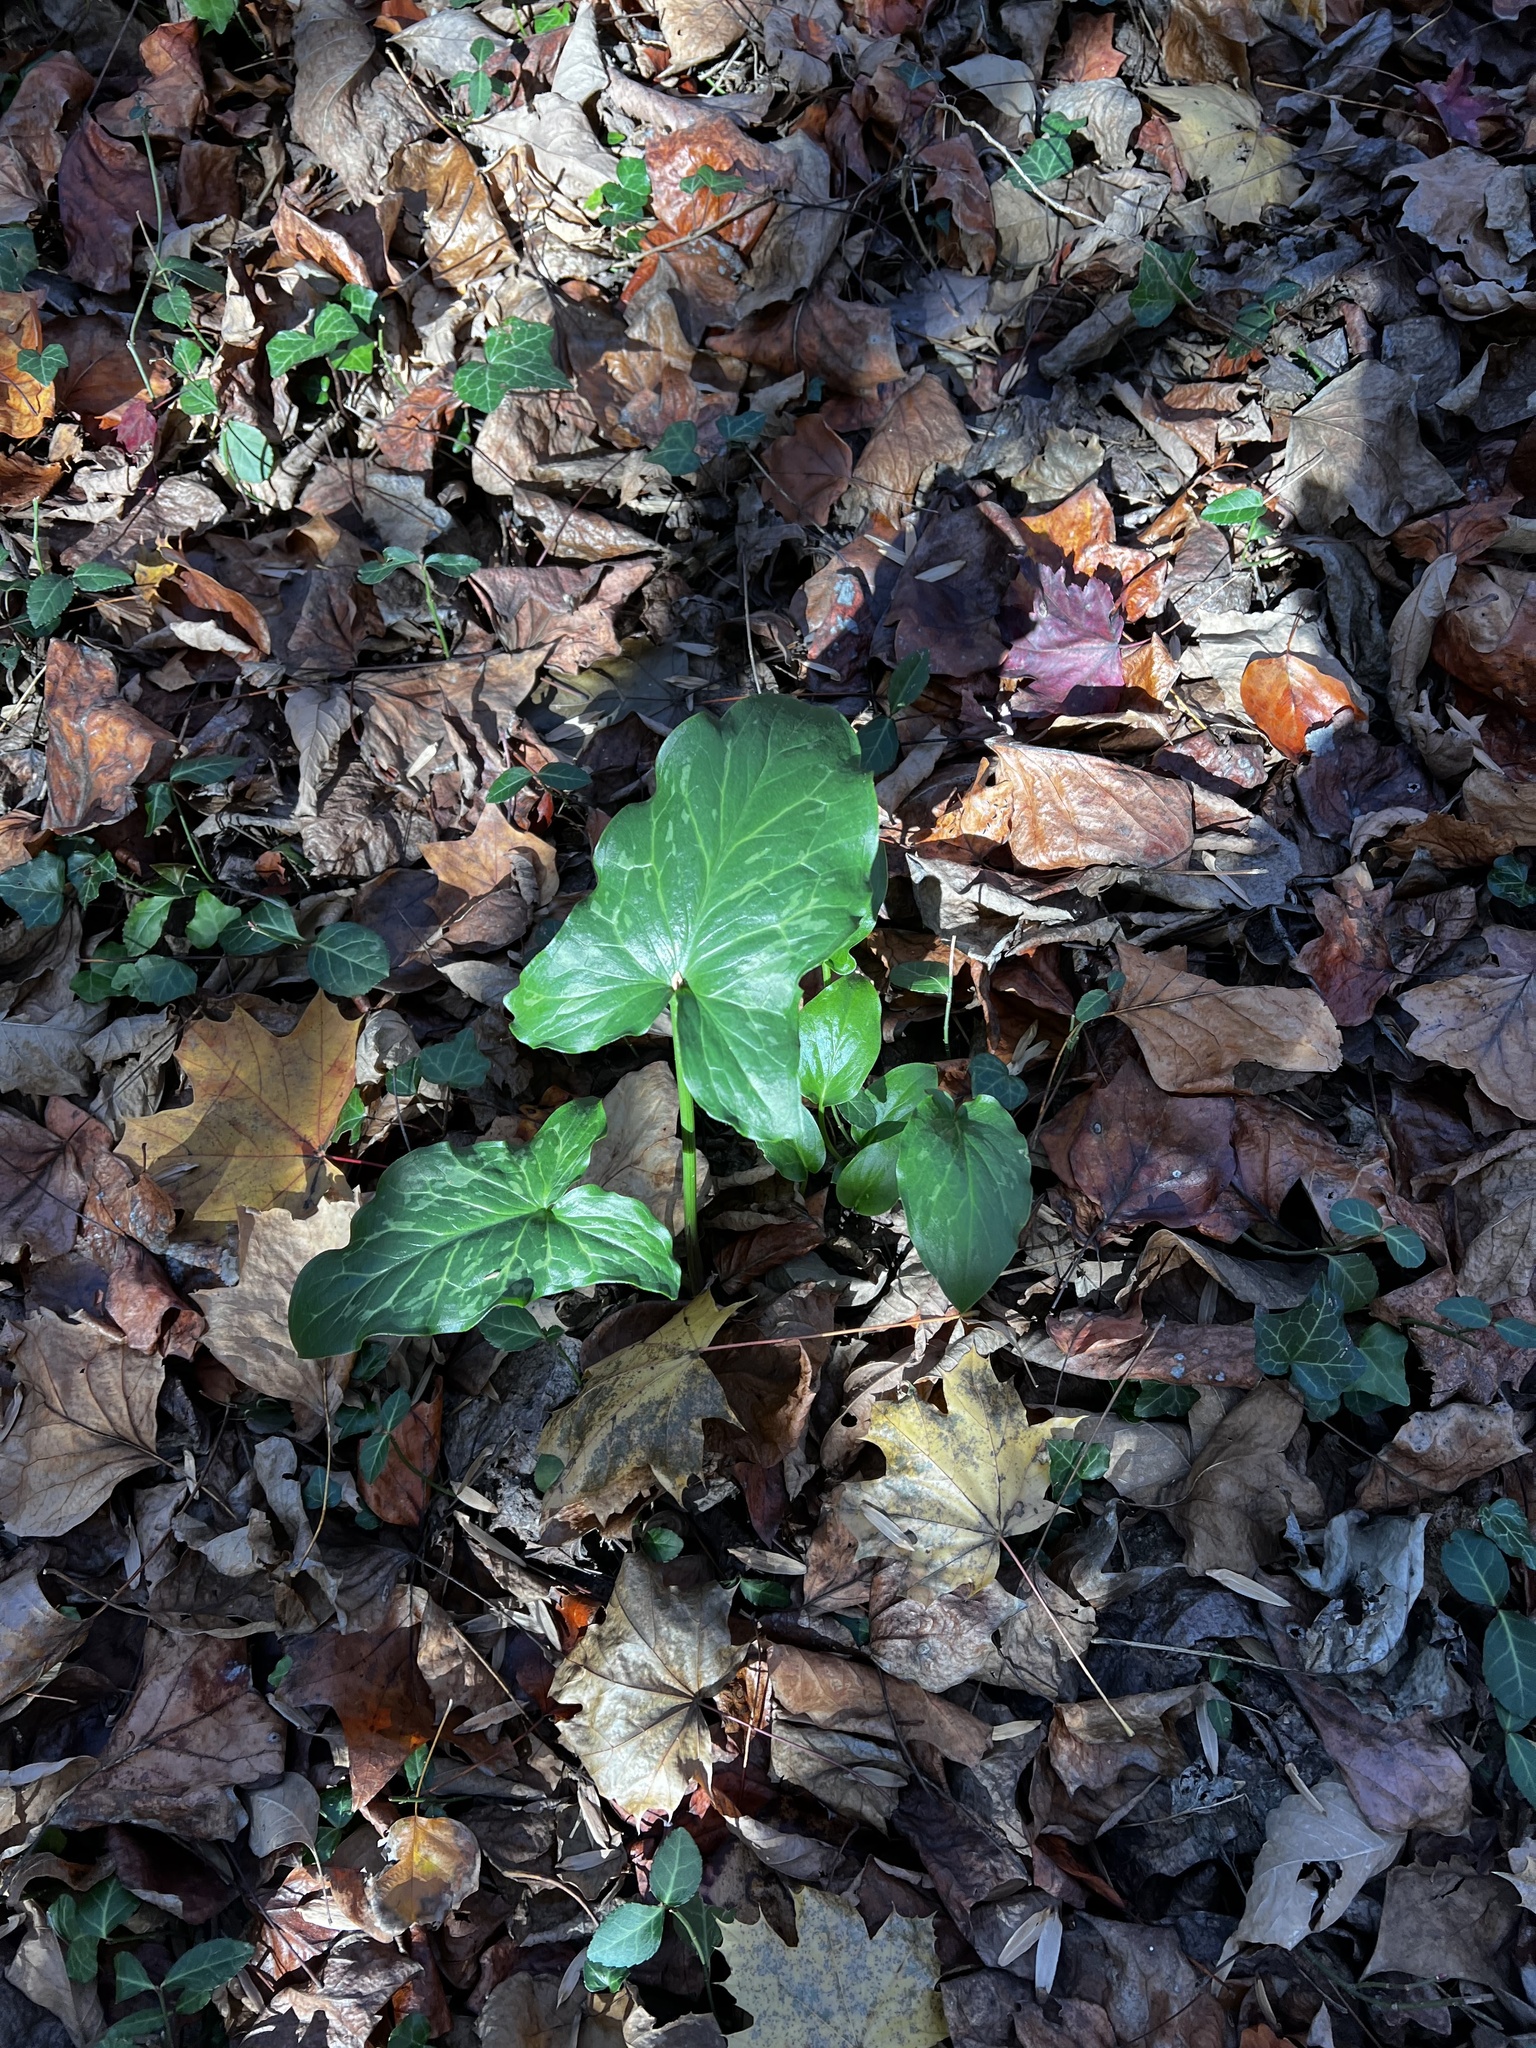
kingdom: Plantae
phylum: Tracheophyta
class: Liliopsida
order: Alismatales
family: Araceae
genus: Arum
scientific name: Arum italicum
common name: Italian lords-and-ladies
